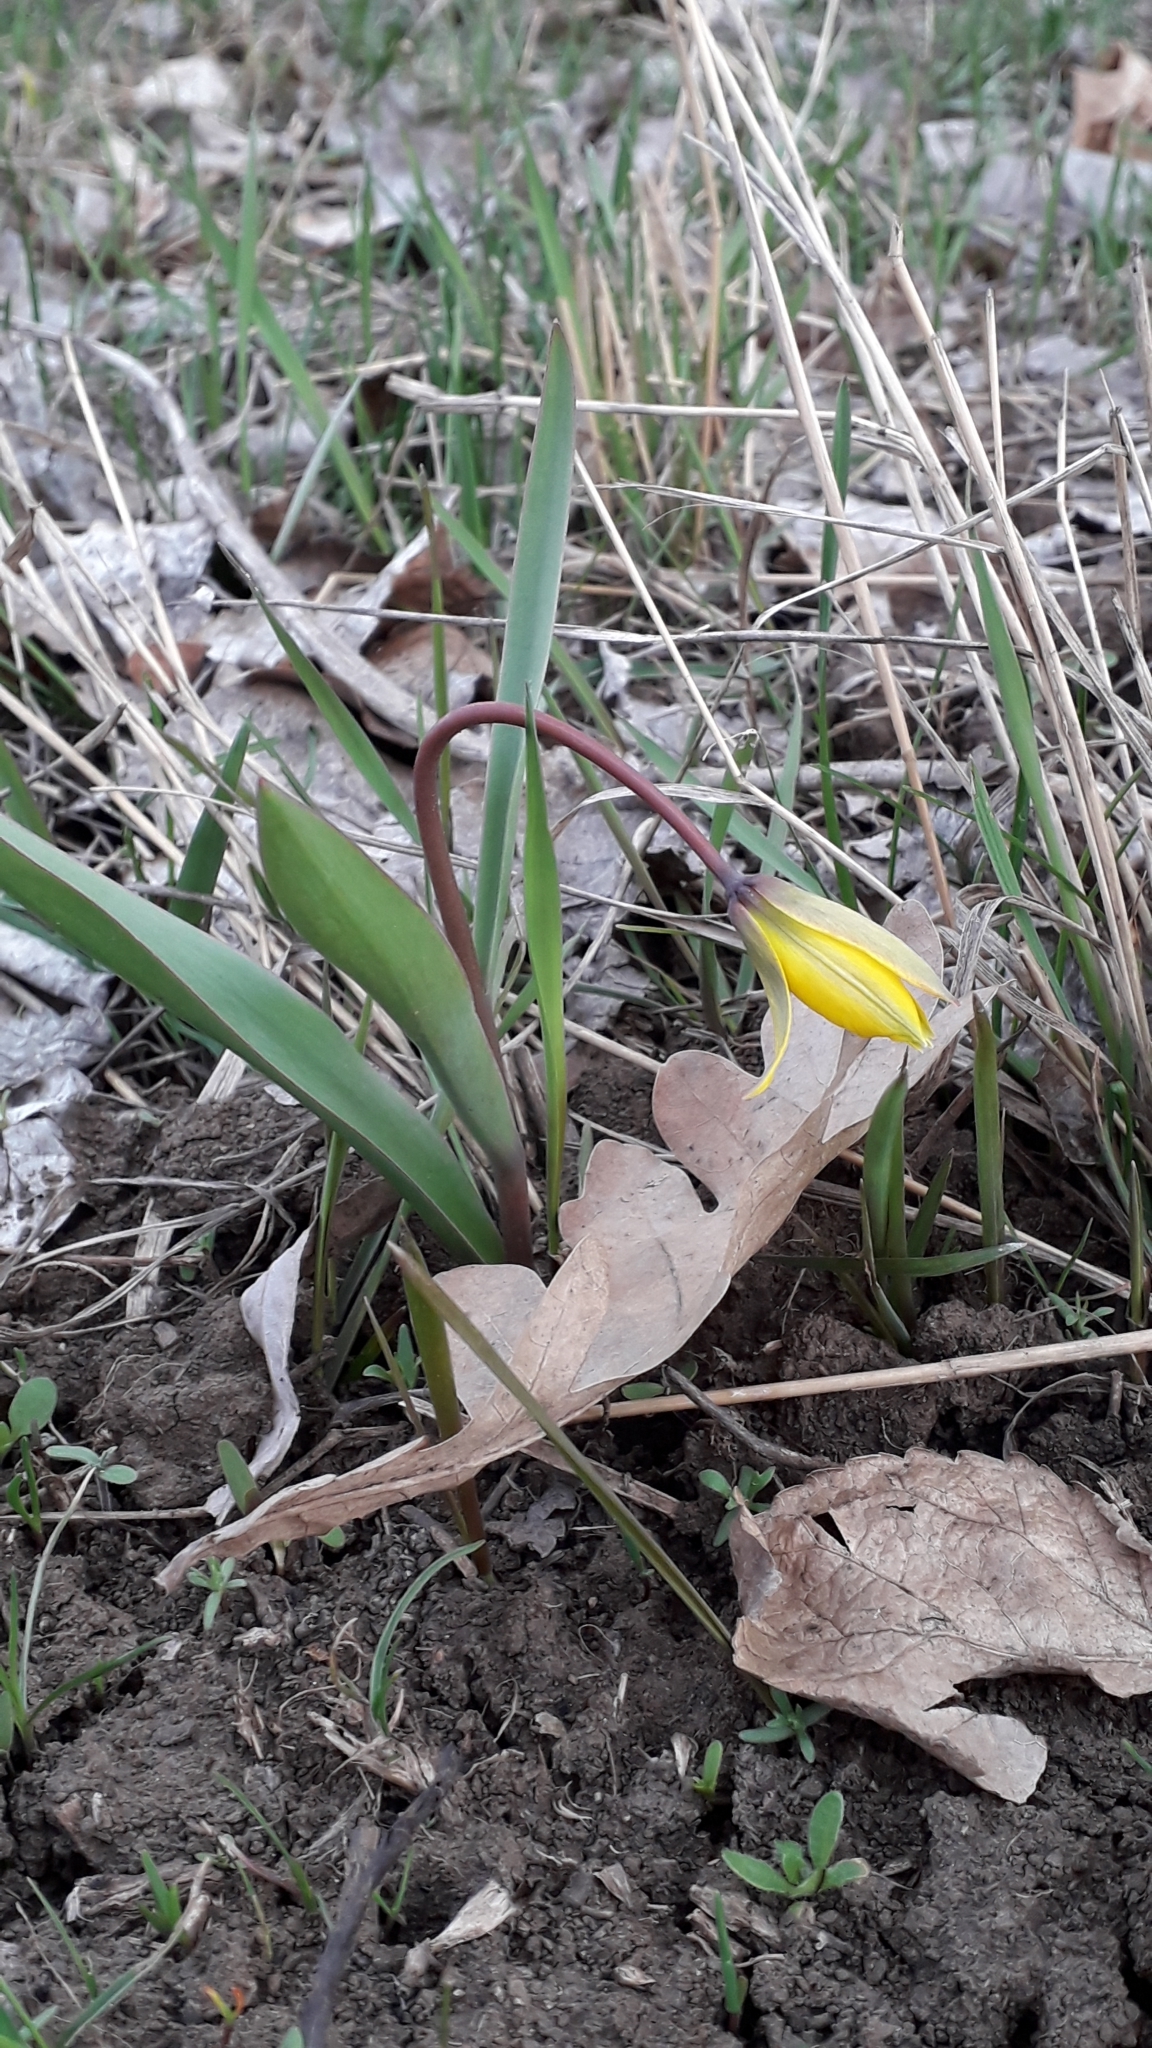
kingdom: Plantae
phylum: Tracheophyta
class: Liliopsida
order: Liliales
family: Liliaceae
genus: Tulipa
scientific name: Tulipa sylvestris
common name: Wild tulip
